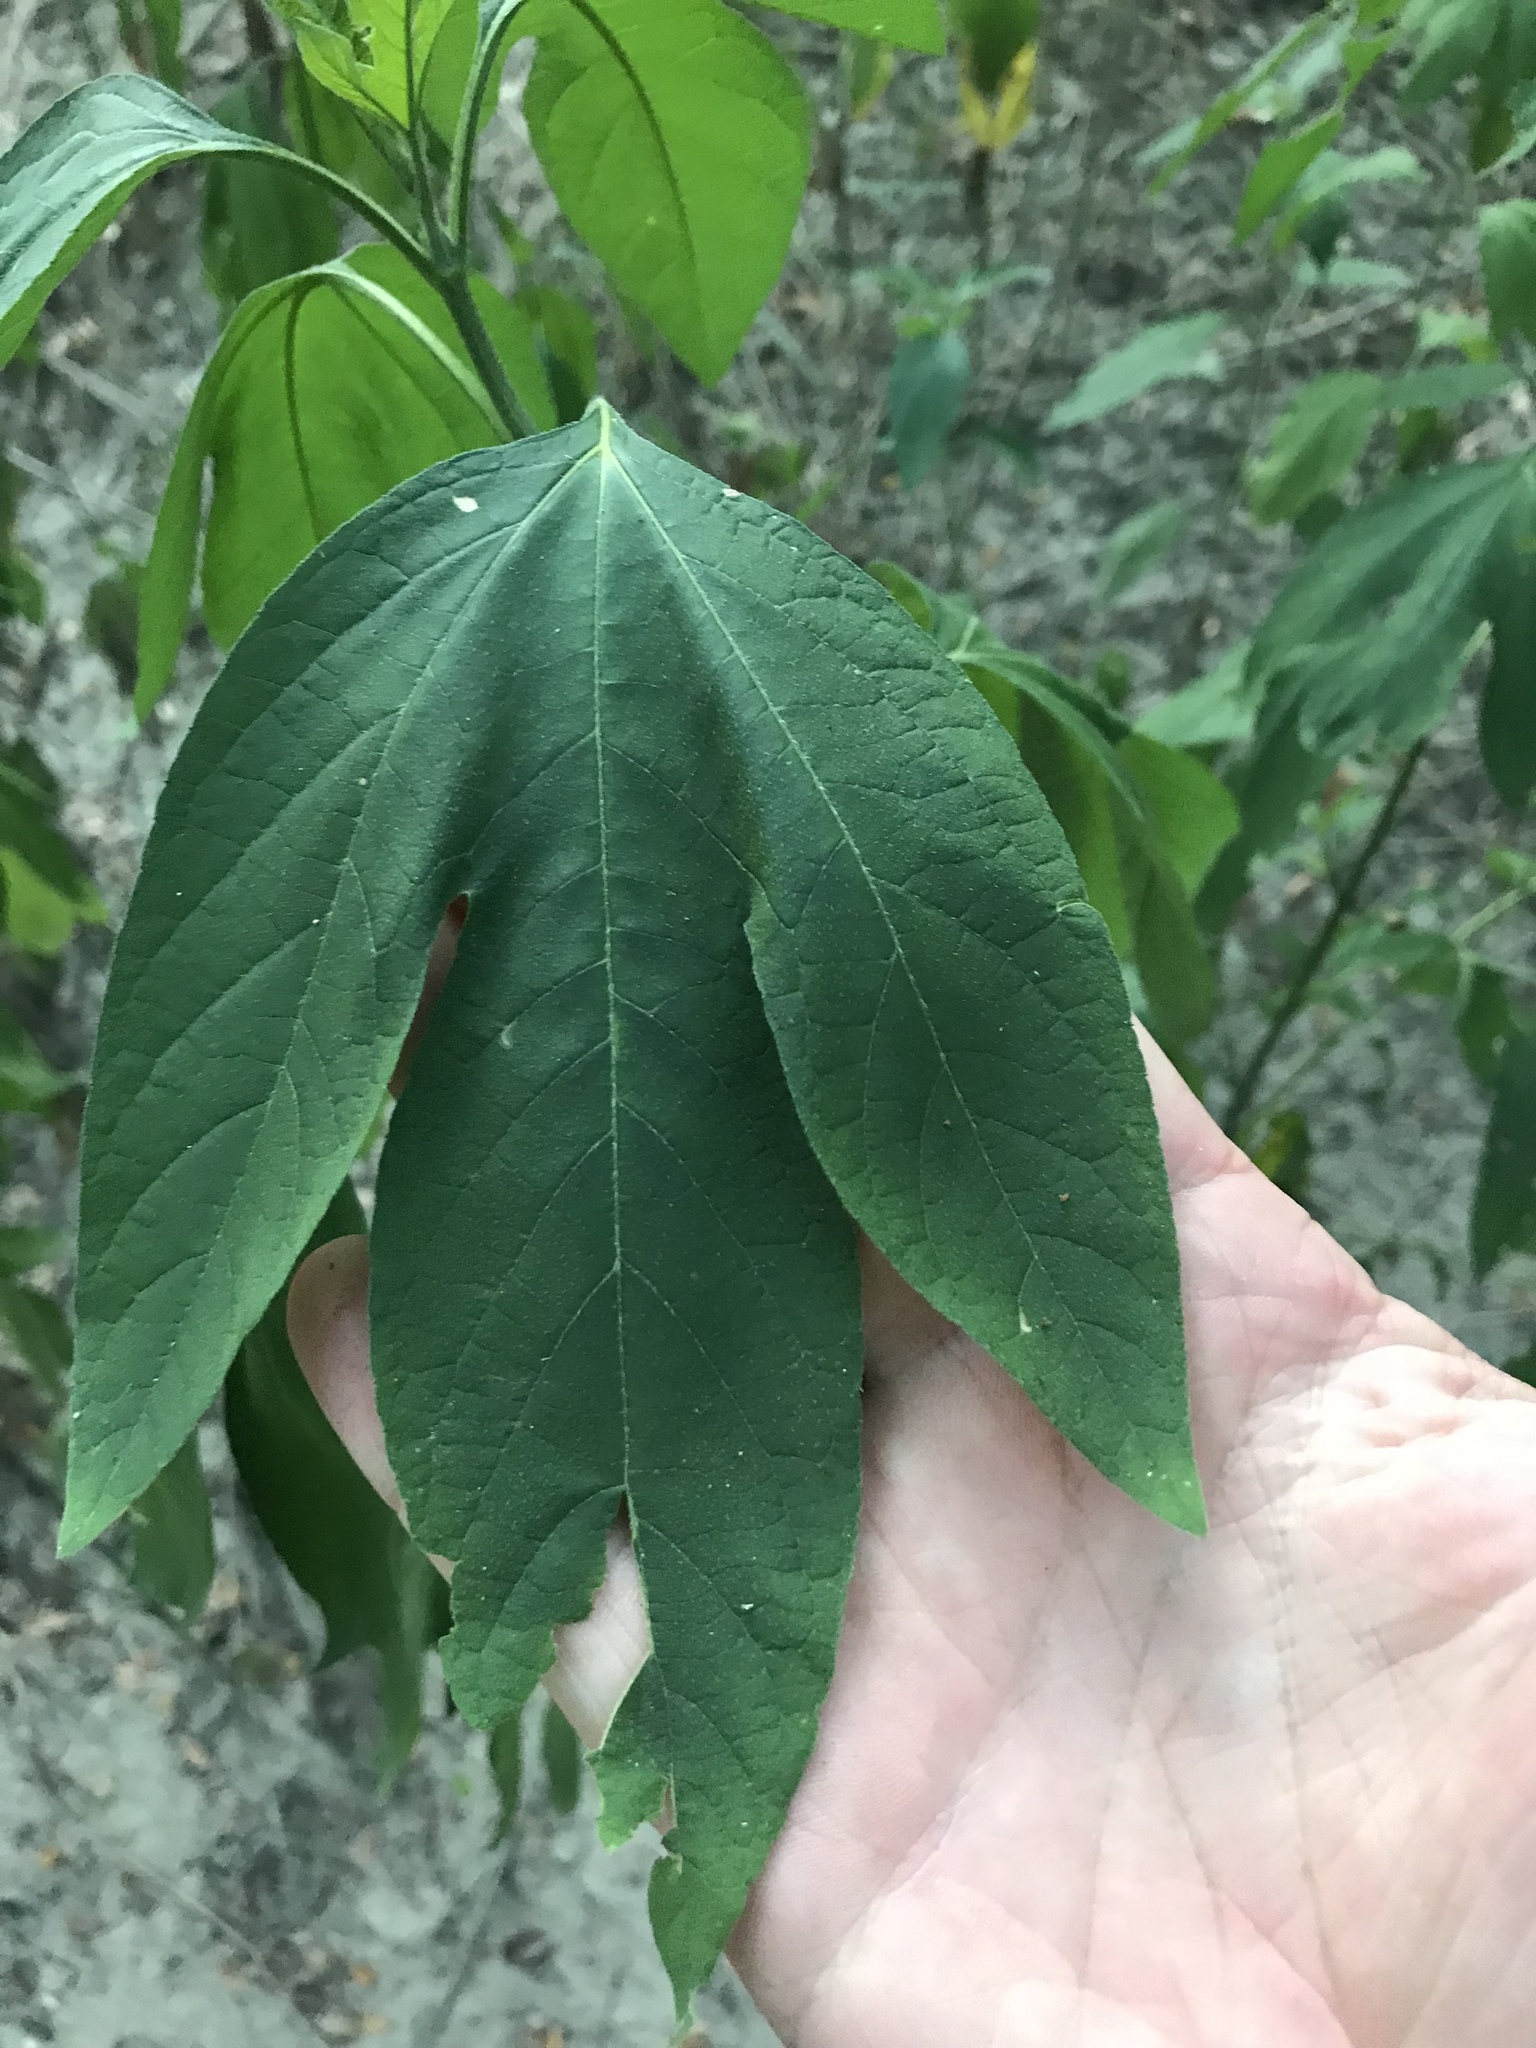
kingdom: Plantae
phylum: Tracheophyta
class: Magnoliopsida
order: Asterales
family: Asteraceae
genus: Ambrosia
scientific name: Ambrosia trifida
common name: Giant ragweed
